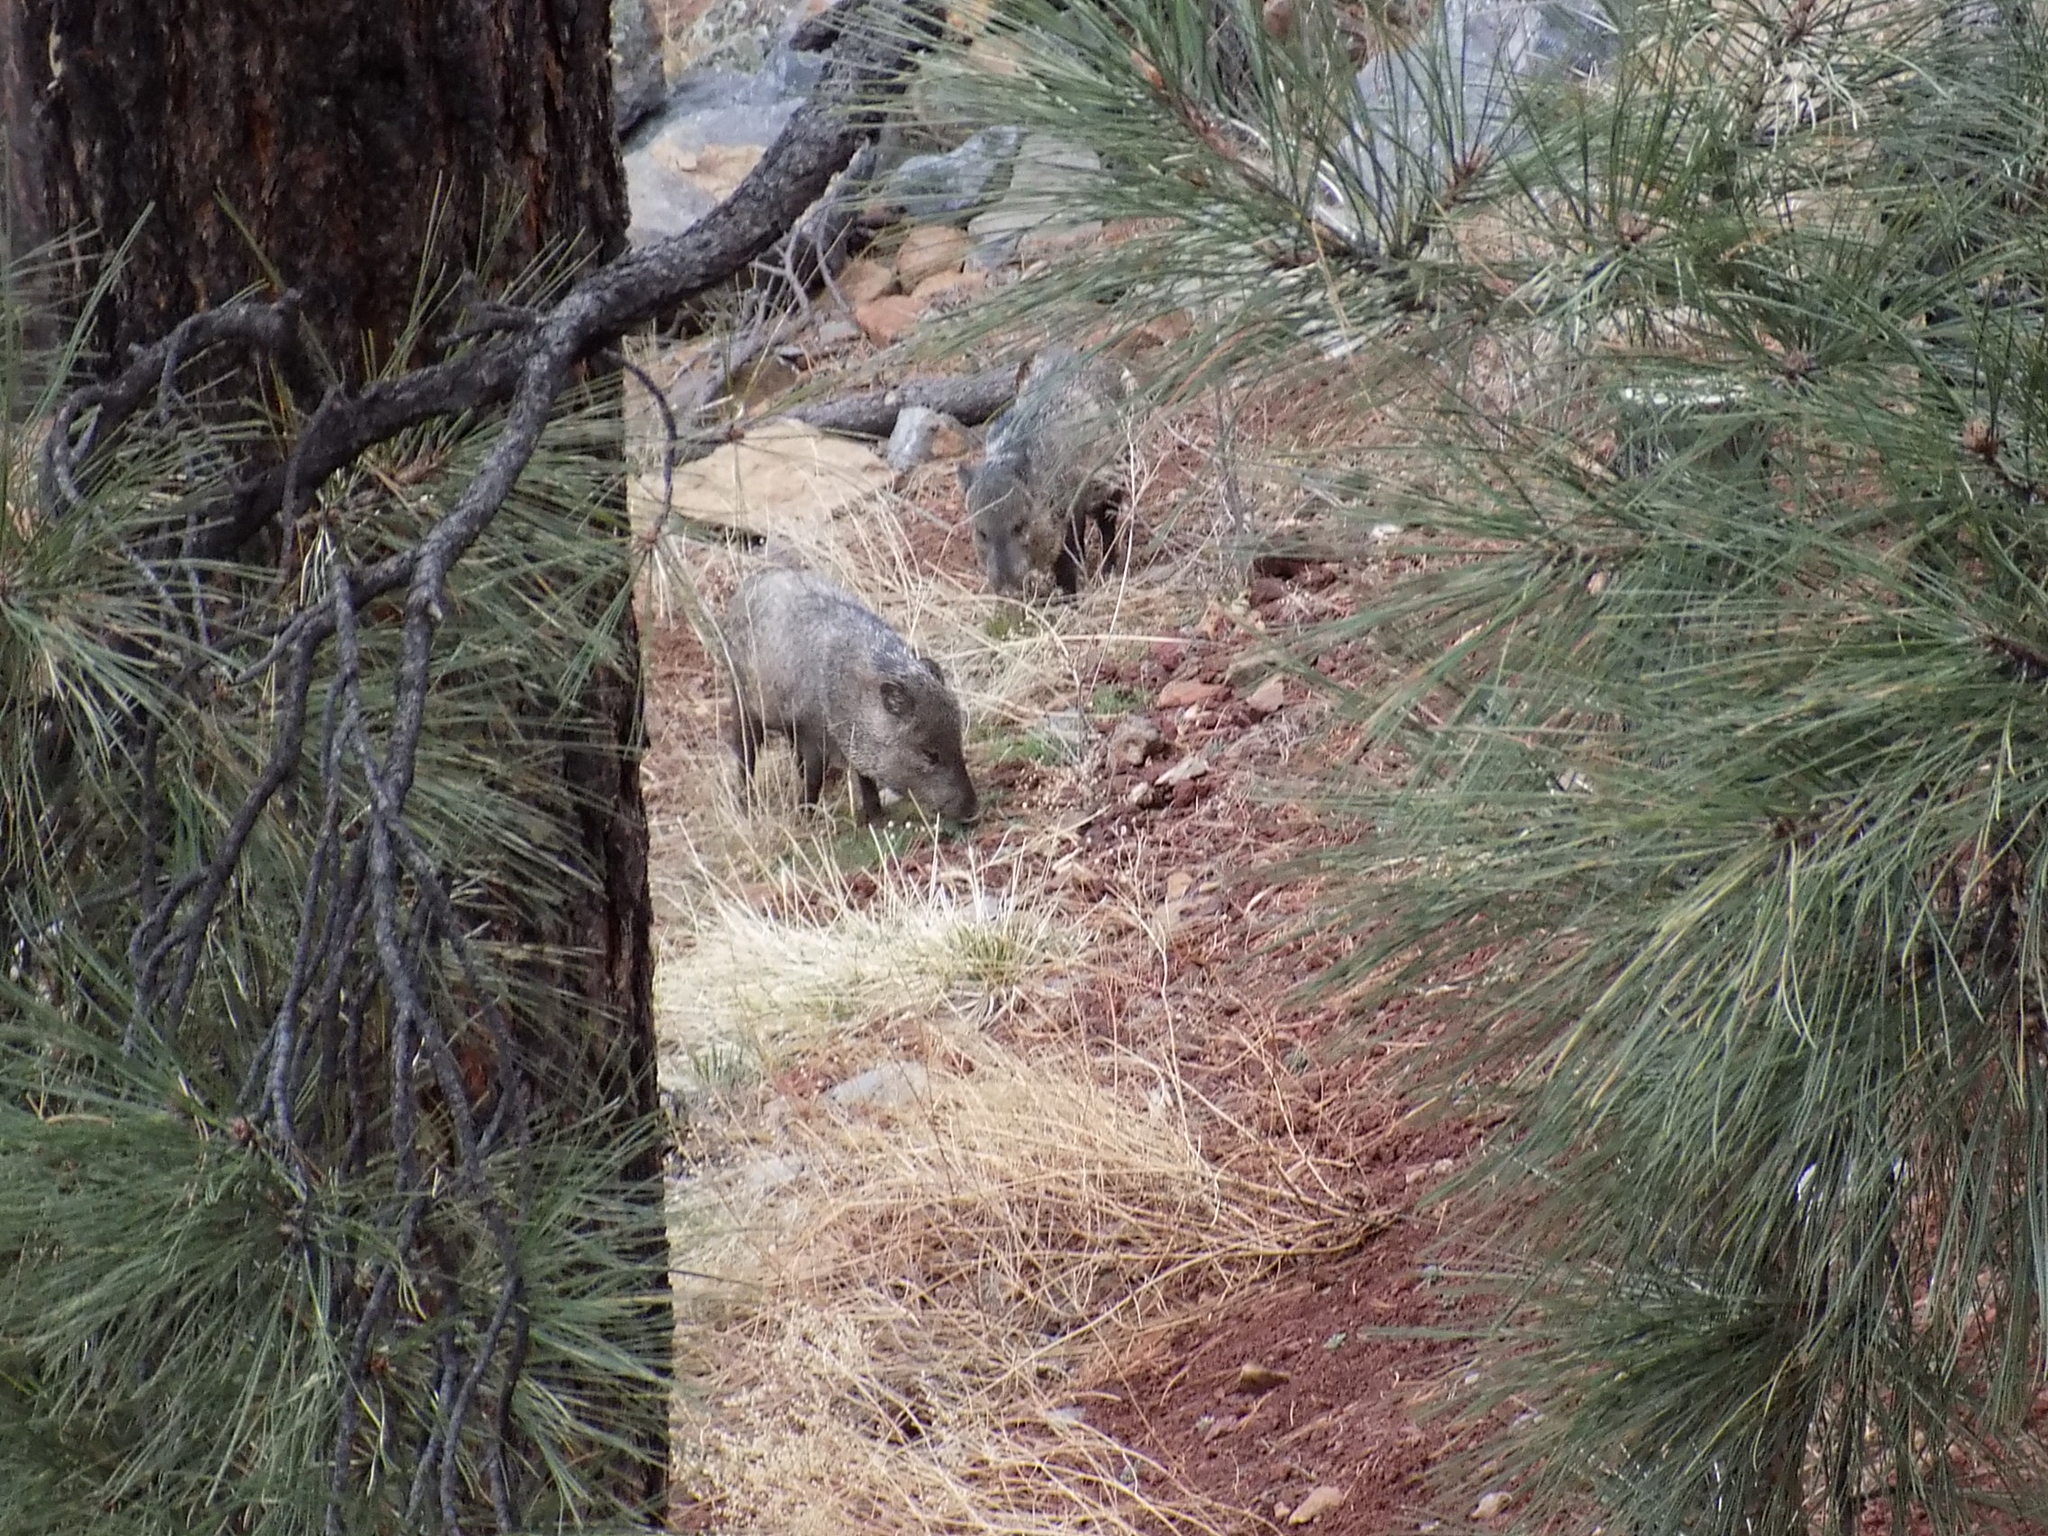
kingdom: Animalia
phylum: Chordata
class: Mammalia
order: Artiodactyla
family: Tayassuidae
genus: Pecari
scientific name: Pecari tajacu
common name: Collared peccary
